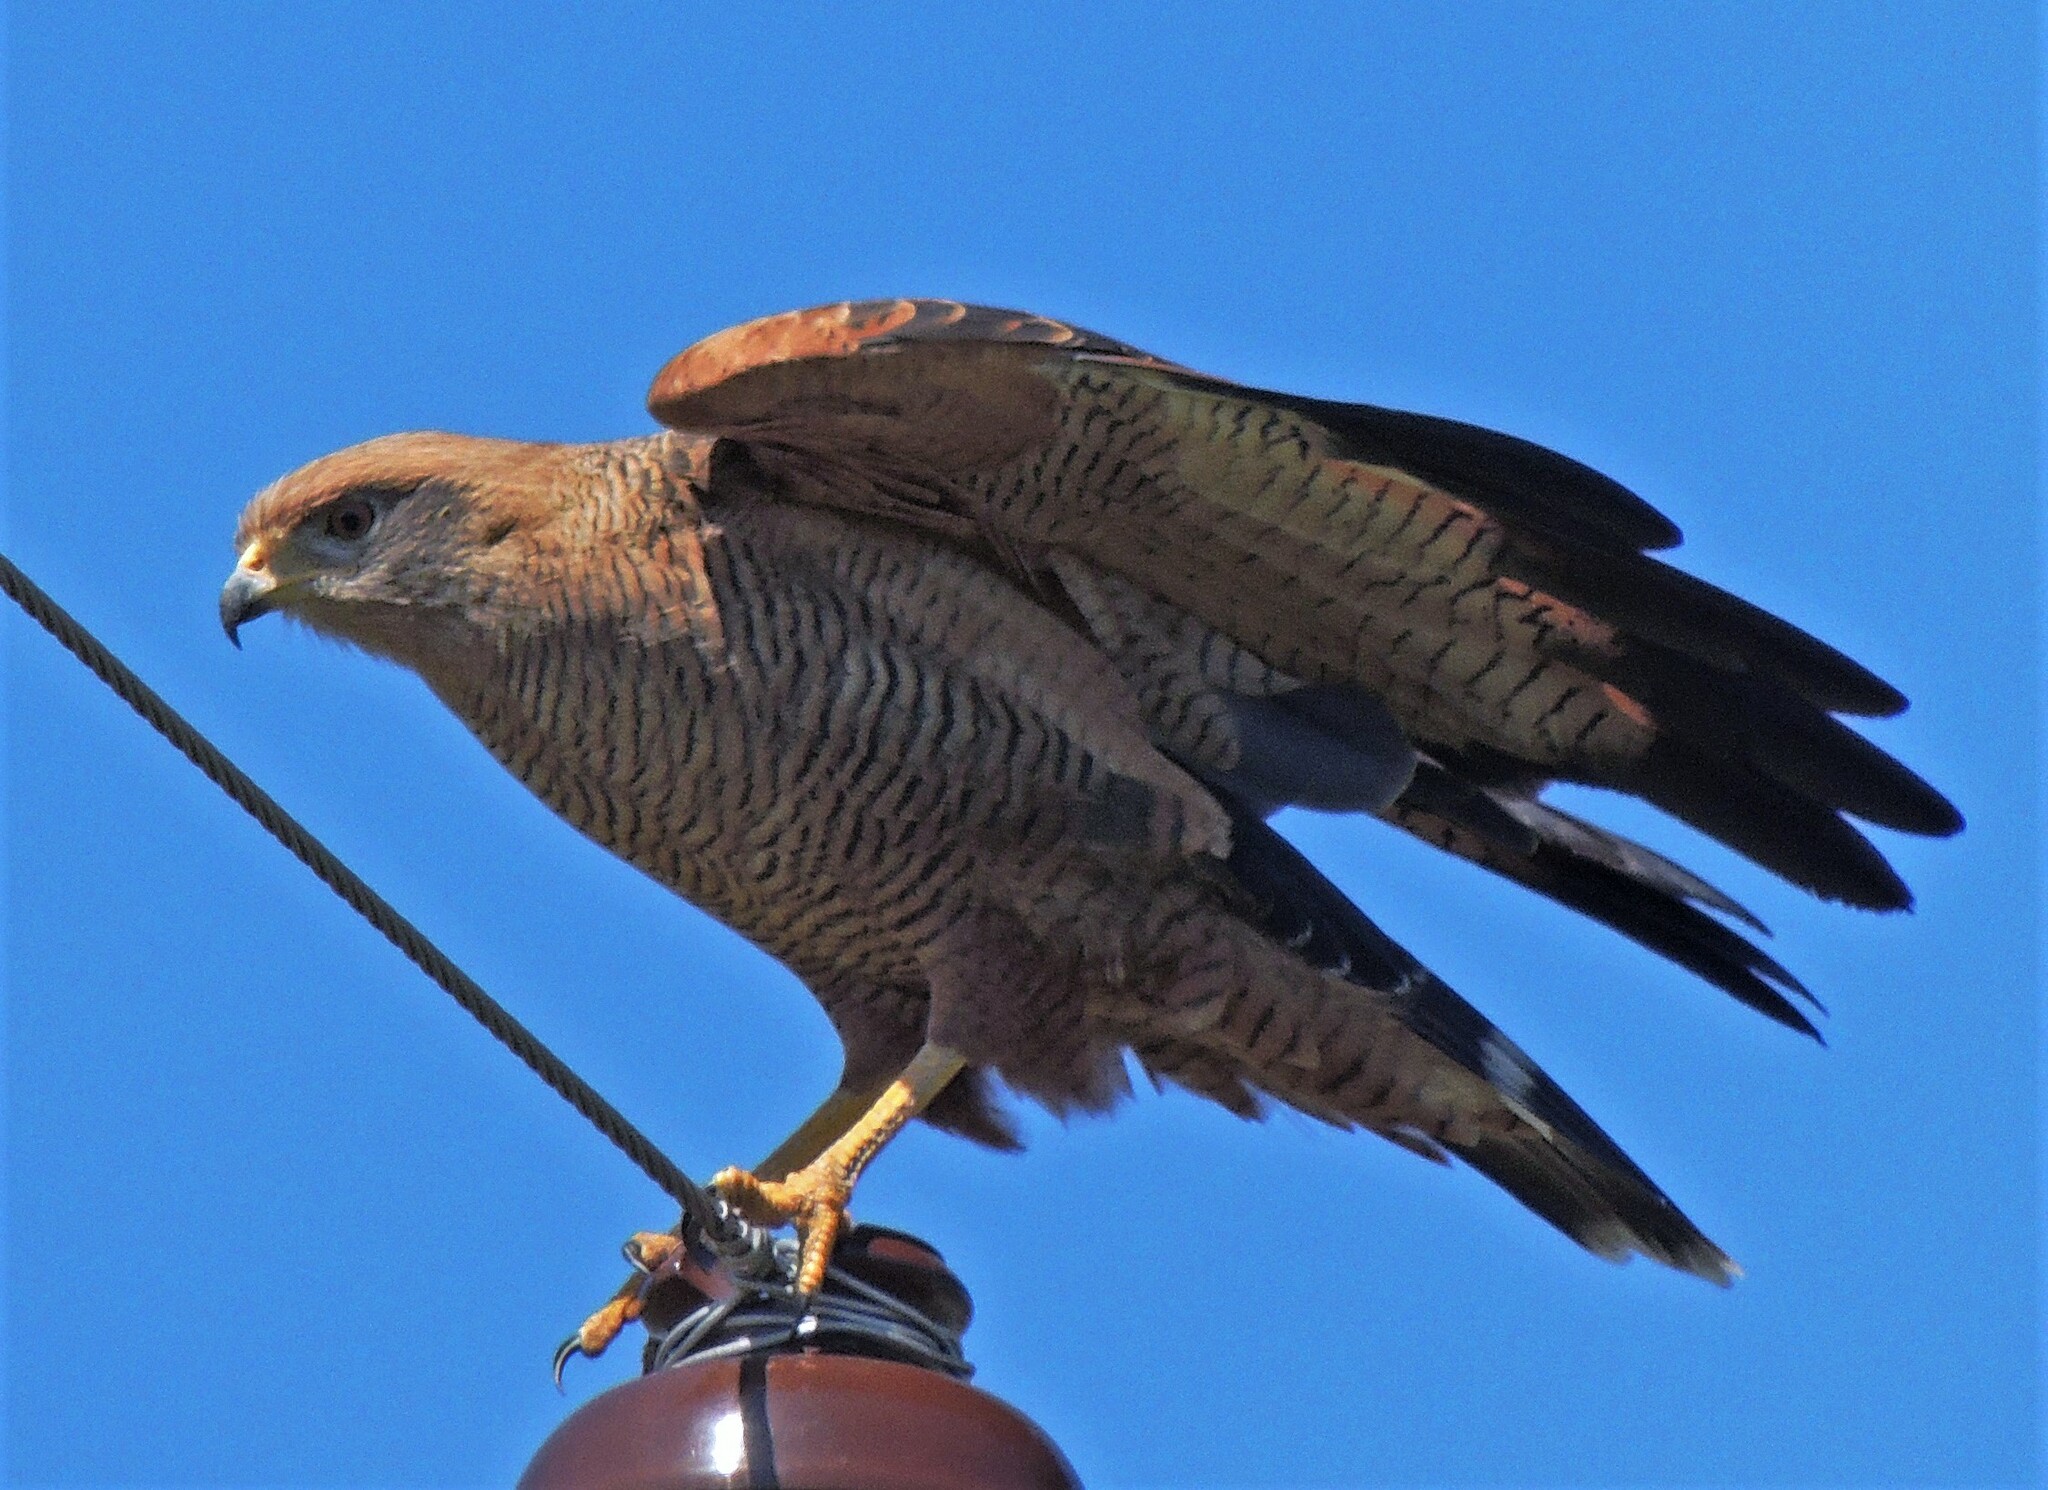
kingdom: Animalia
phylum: Chordata
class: Aves
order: Accipitriformes
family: Accipitridae
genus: Buteogallus
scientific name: Buteogallus meridionalis
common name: Savanna hawk
